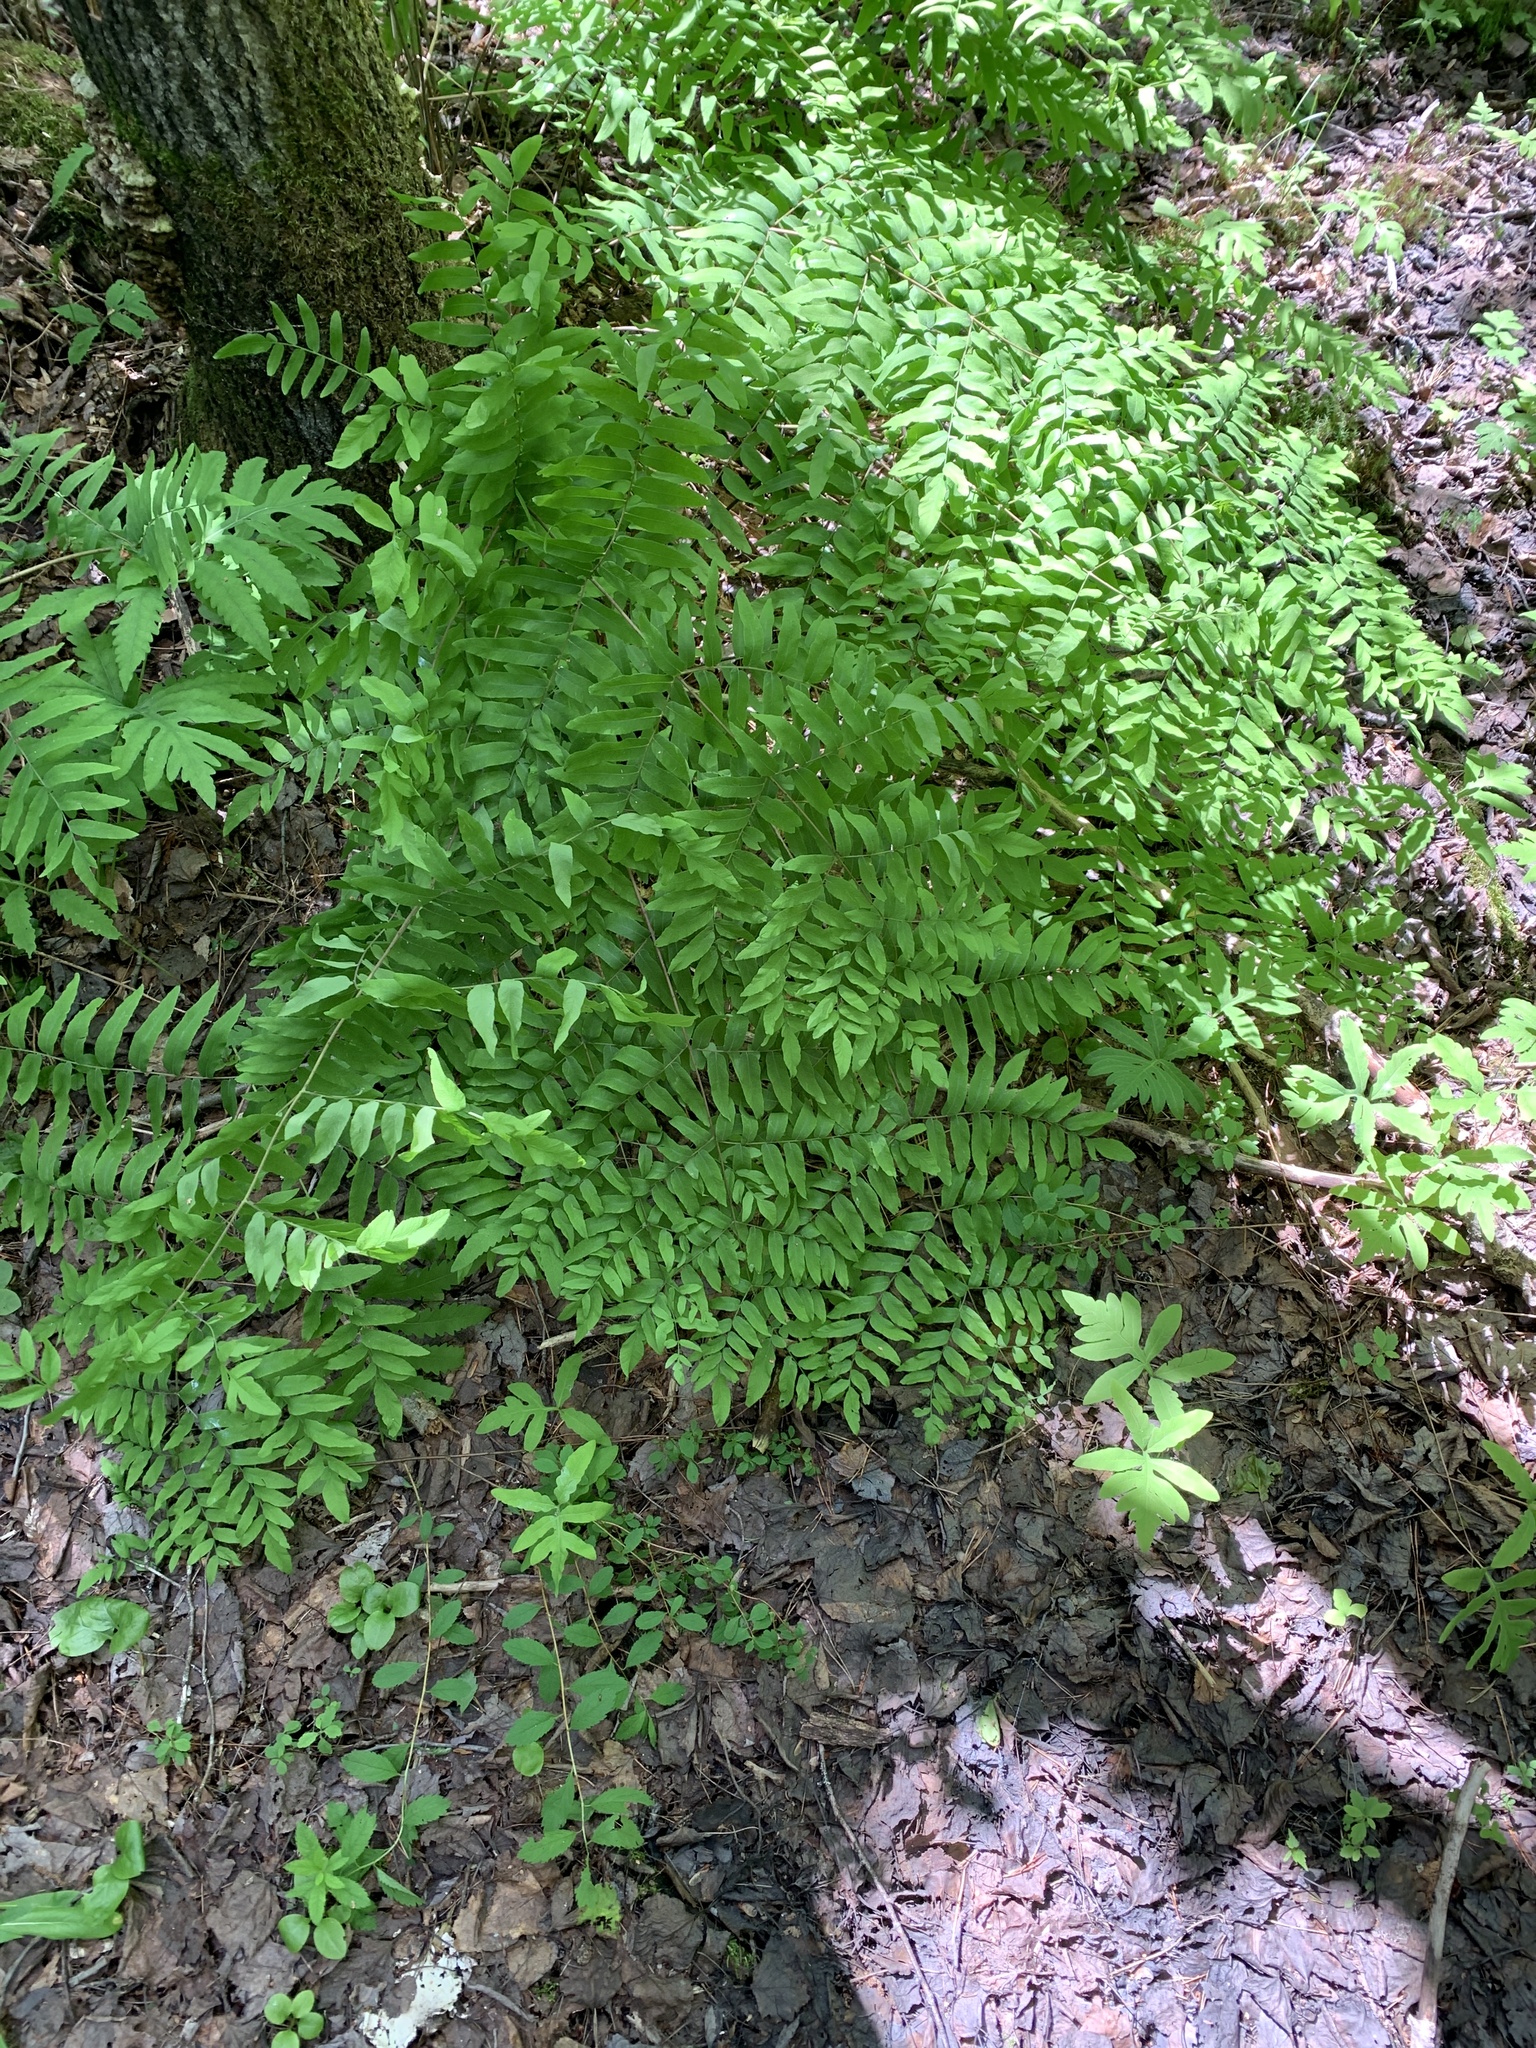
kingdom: Plantae
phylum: Tracheophyta
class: Polypodiopsida
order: Osmundales
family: Osmundaceae
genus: Osmunda
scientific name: Osmunda spectabilis
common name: American royal fern
